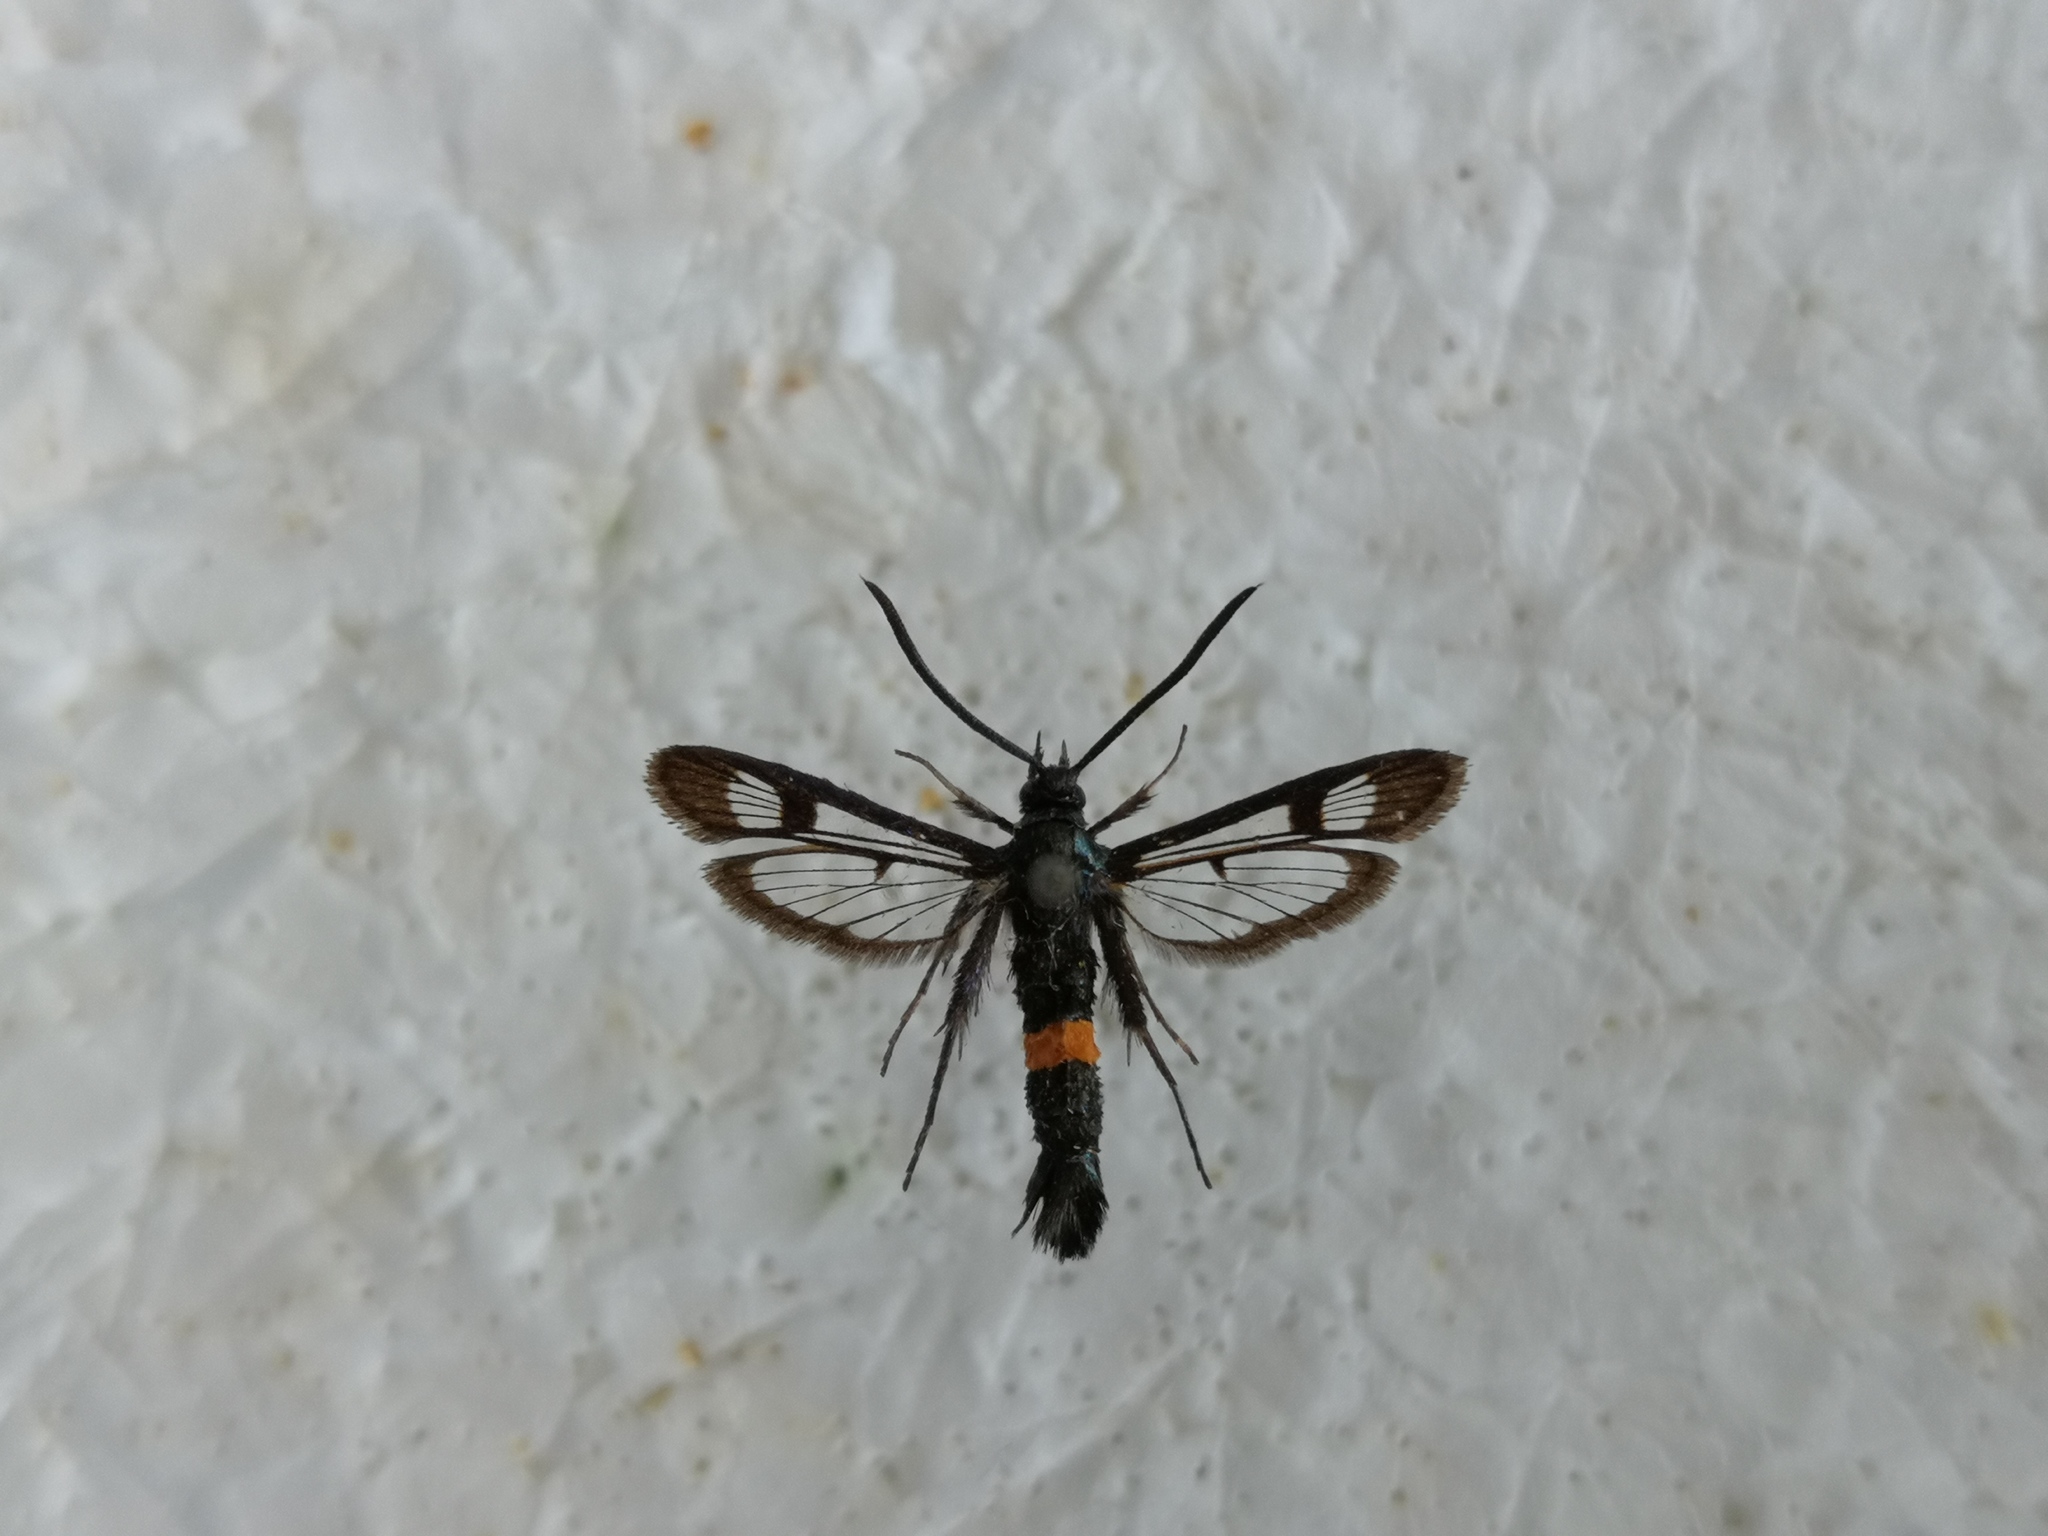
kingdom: Animalia
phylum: Arthropoda
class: Insecta
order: Lepidoptera
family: Sesiidae
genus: Synanthedon
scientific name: Synanthedon myopaeformis
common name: Red-belted clearwing
